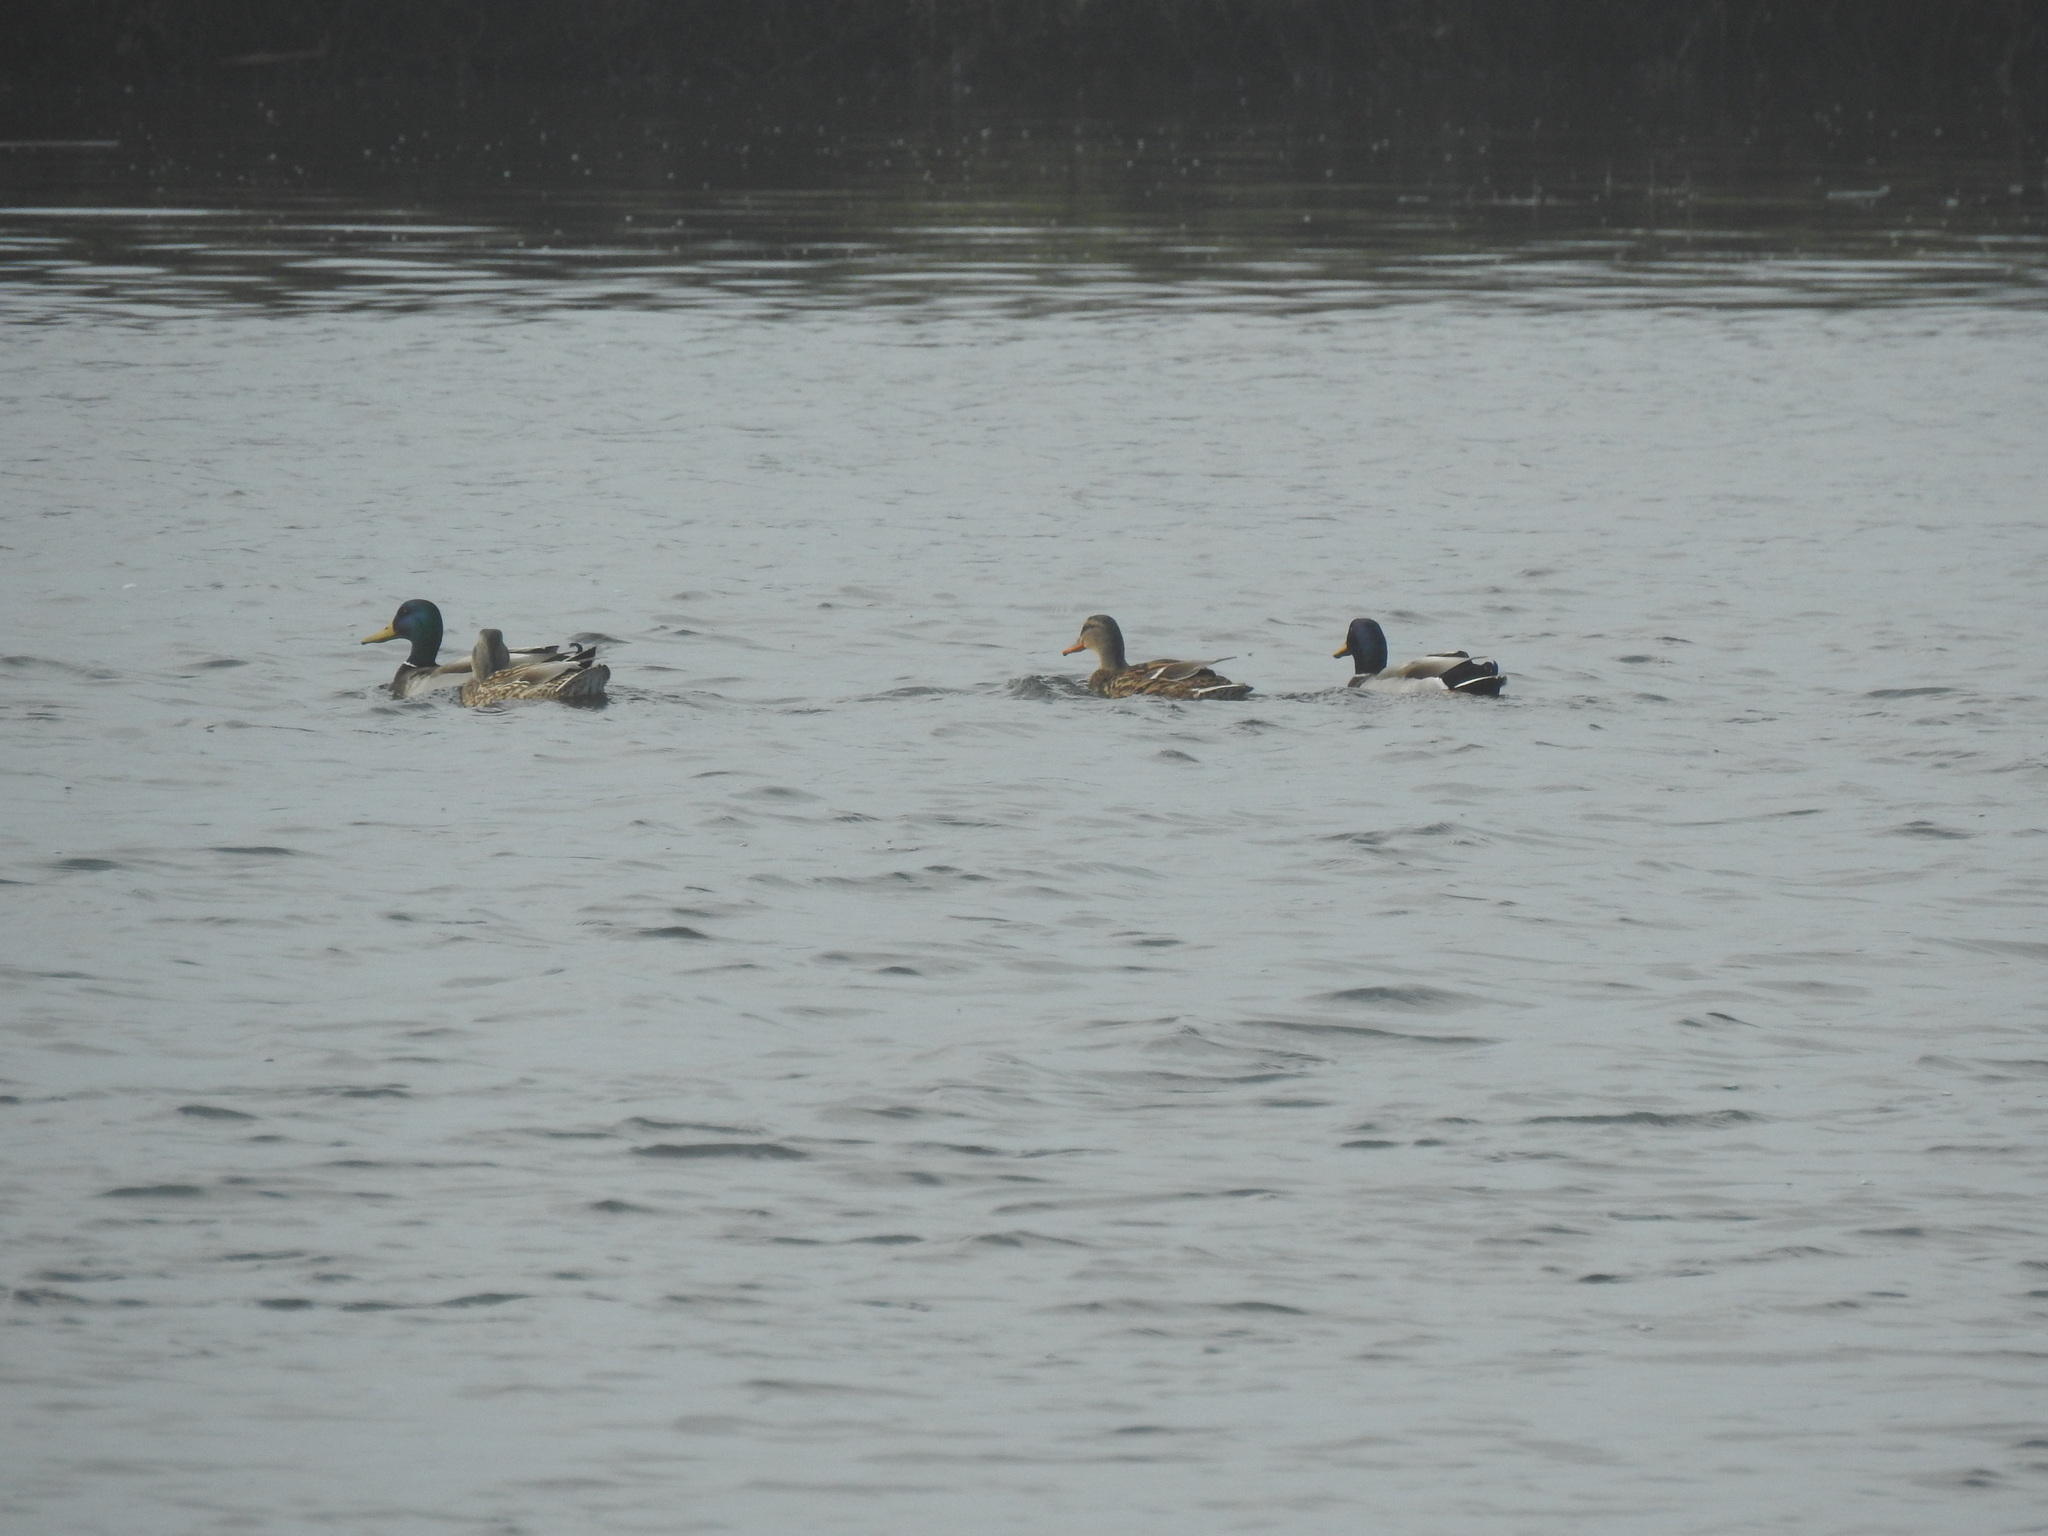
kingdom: Animalia
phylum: Chordata
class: Aves
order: Anseriformes
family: Anatidae
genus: Anas
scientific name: Anas platyrhynchos
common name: Mallard
